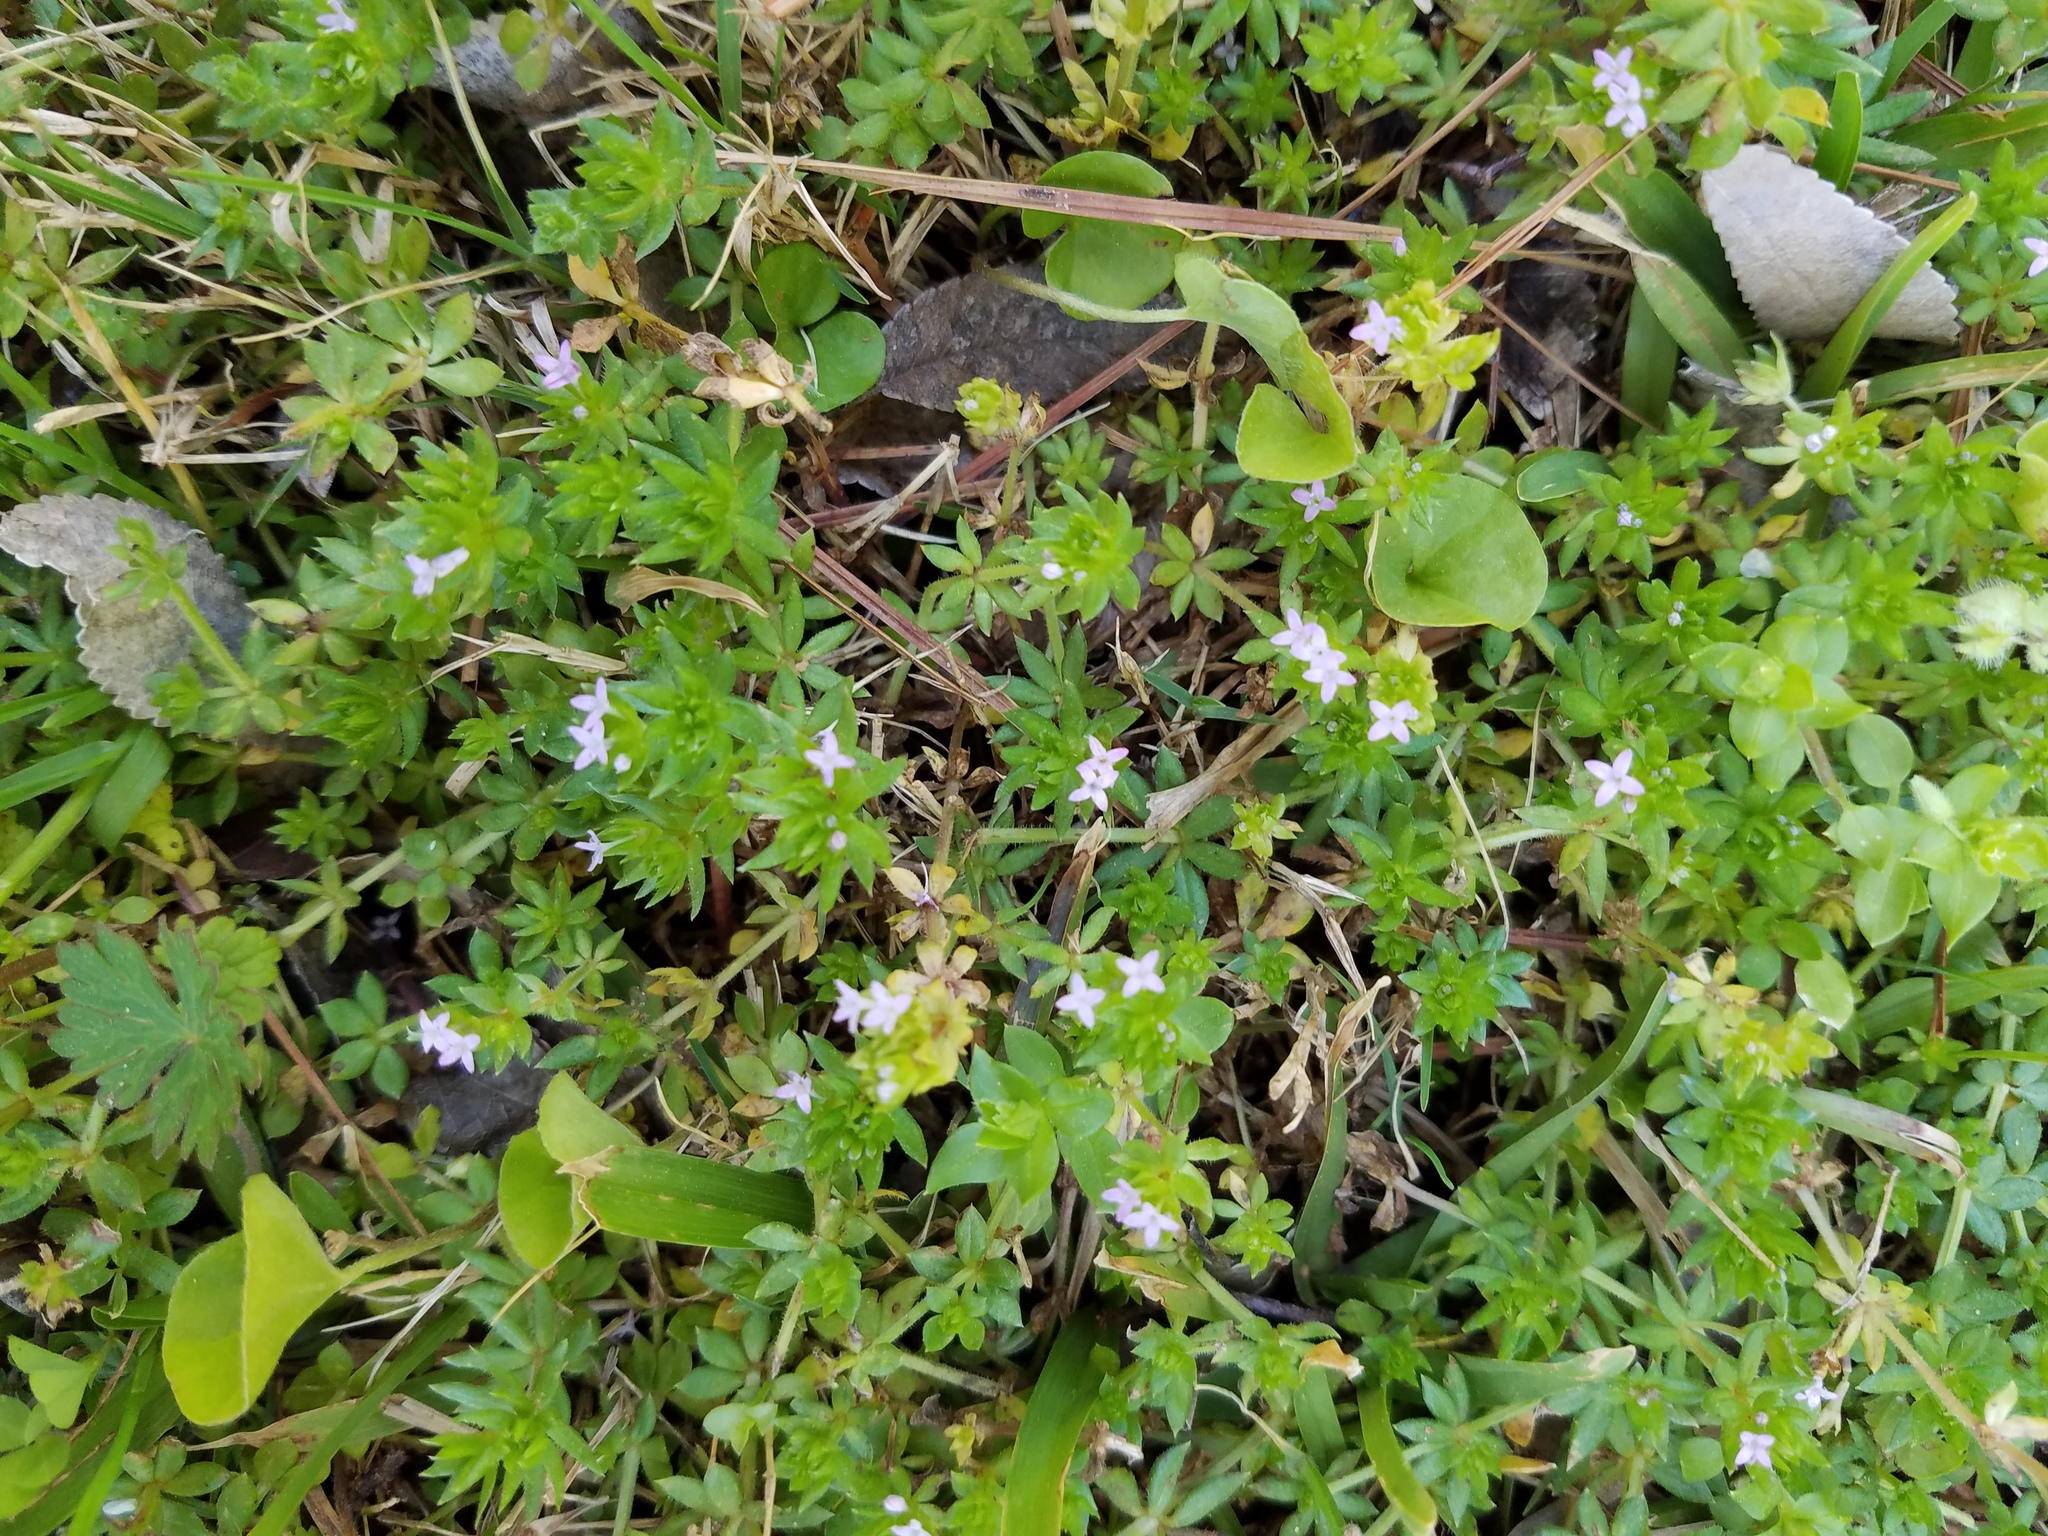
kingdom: Plantae
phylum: Tracheophyta
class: Magnoliopsida
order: Gentianales
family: Rubiaceae
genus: Sherardia
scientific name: Sherardia arvensis
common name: Field madder
